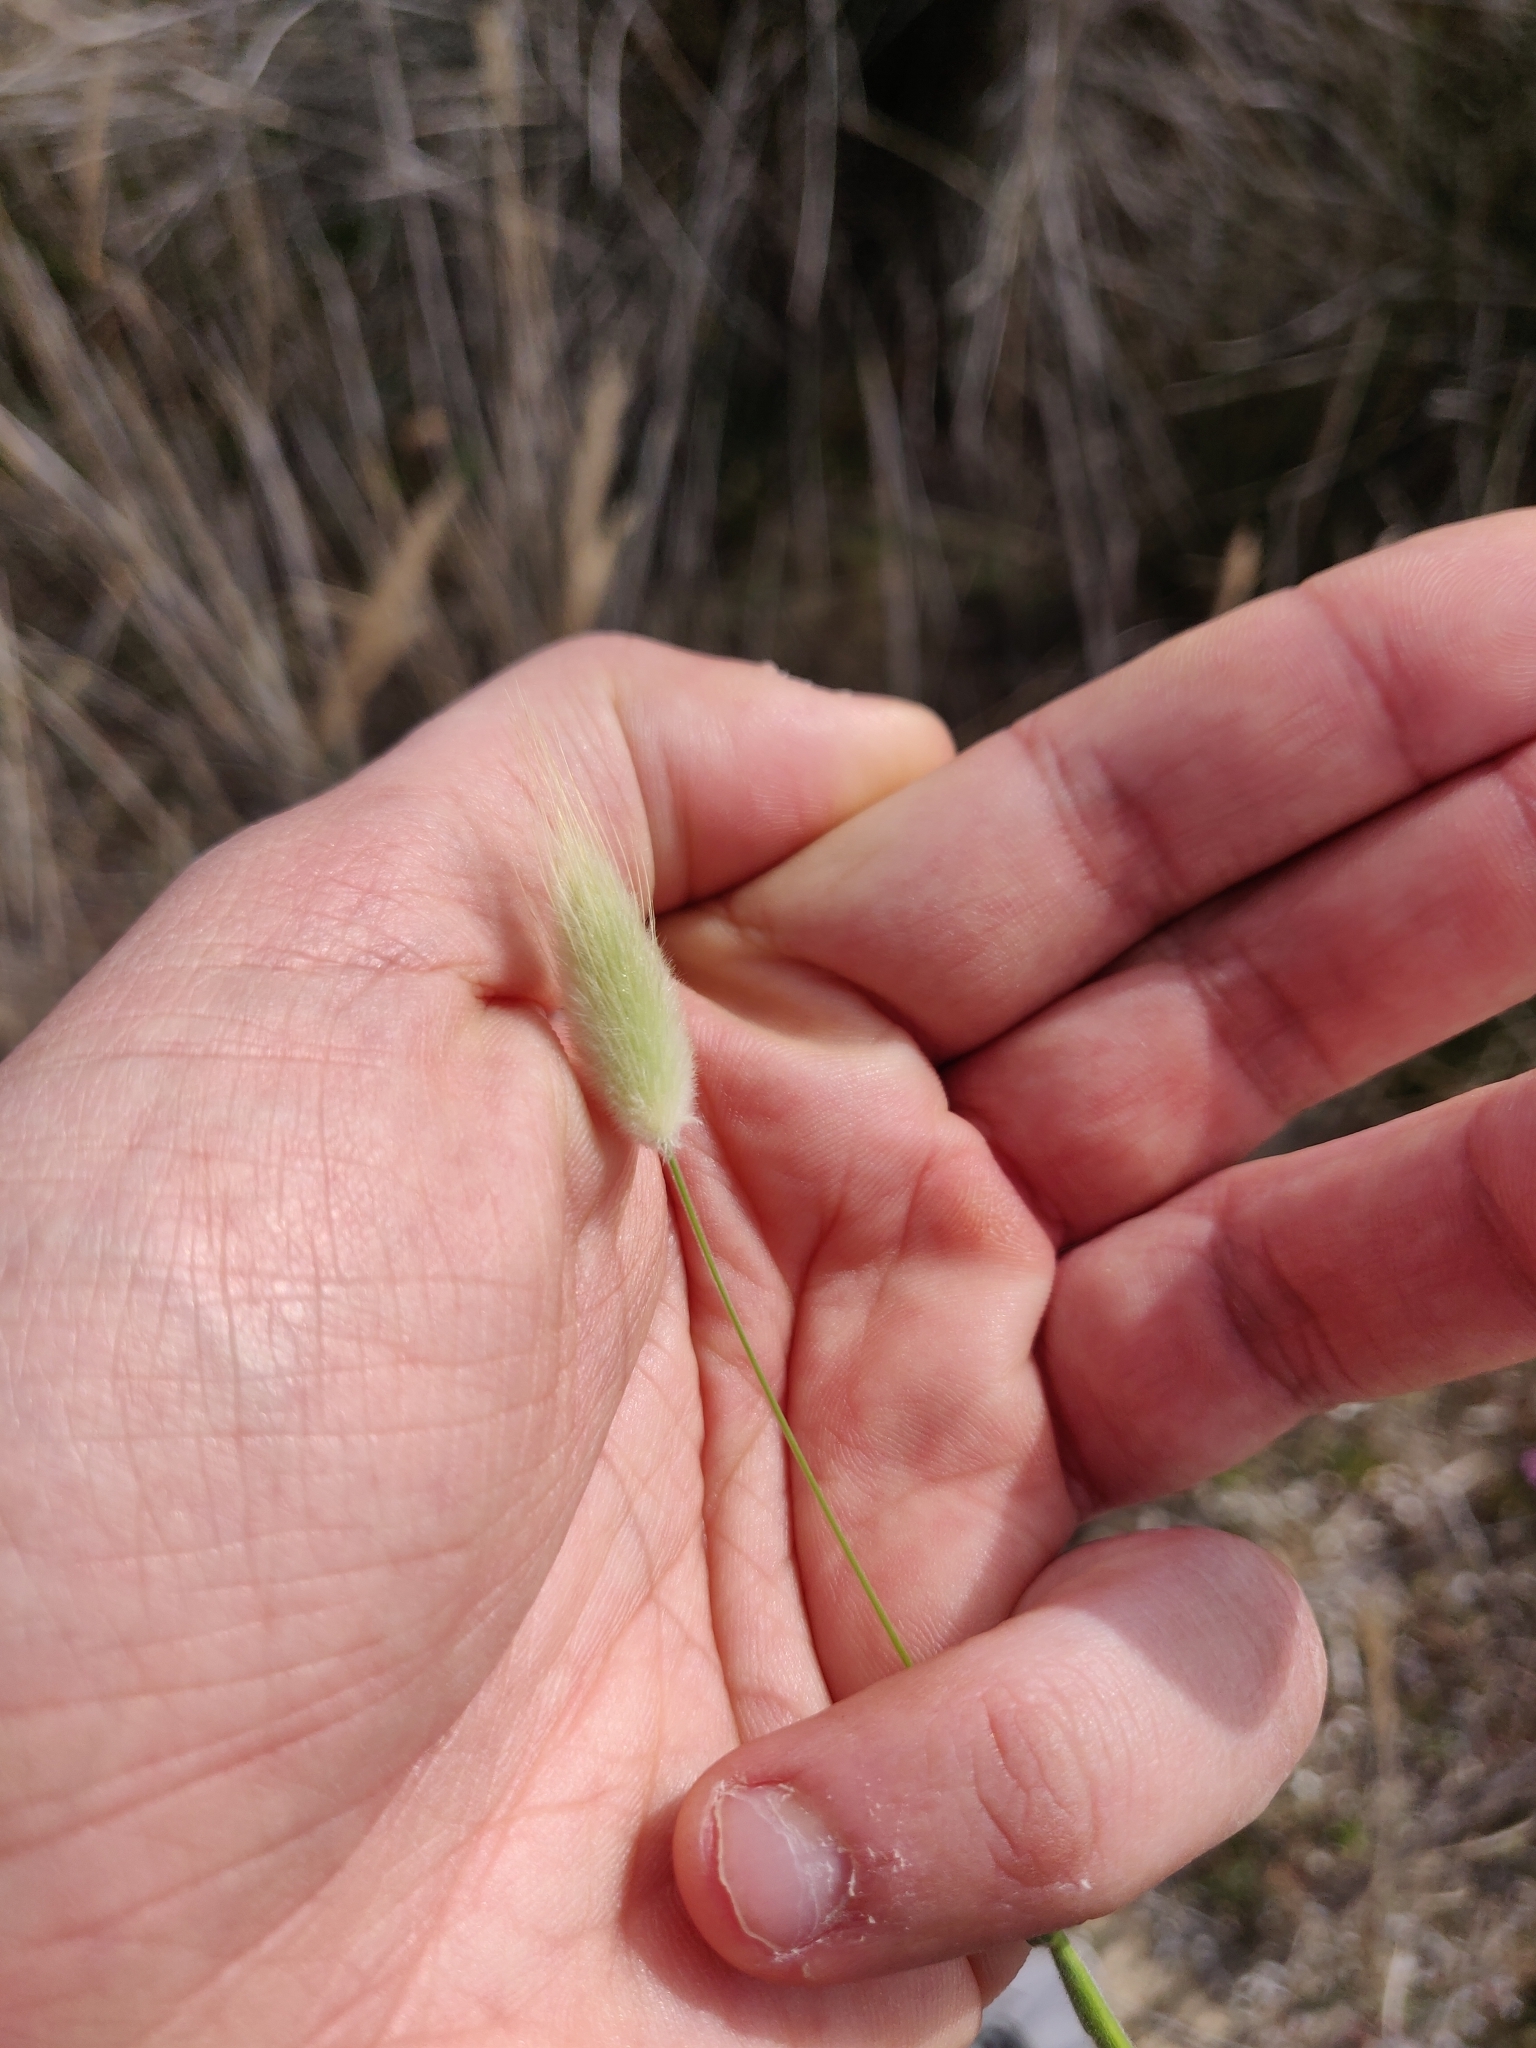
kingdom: Plantae
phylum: Tracheophyta
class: Liliopsida
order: Poales
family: Poaceae
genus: Lagurus
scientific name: Lagurus ovatus
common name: Hare's-tail
